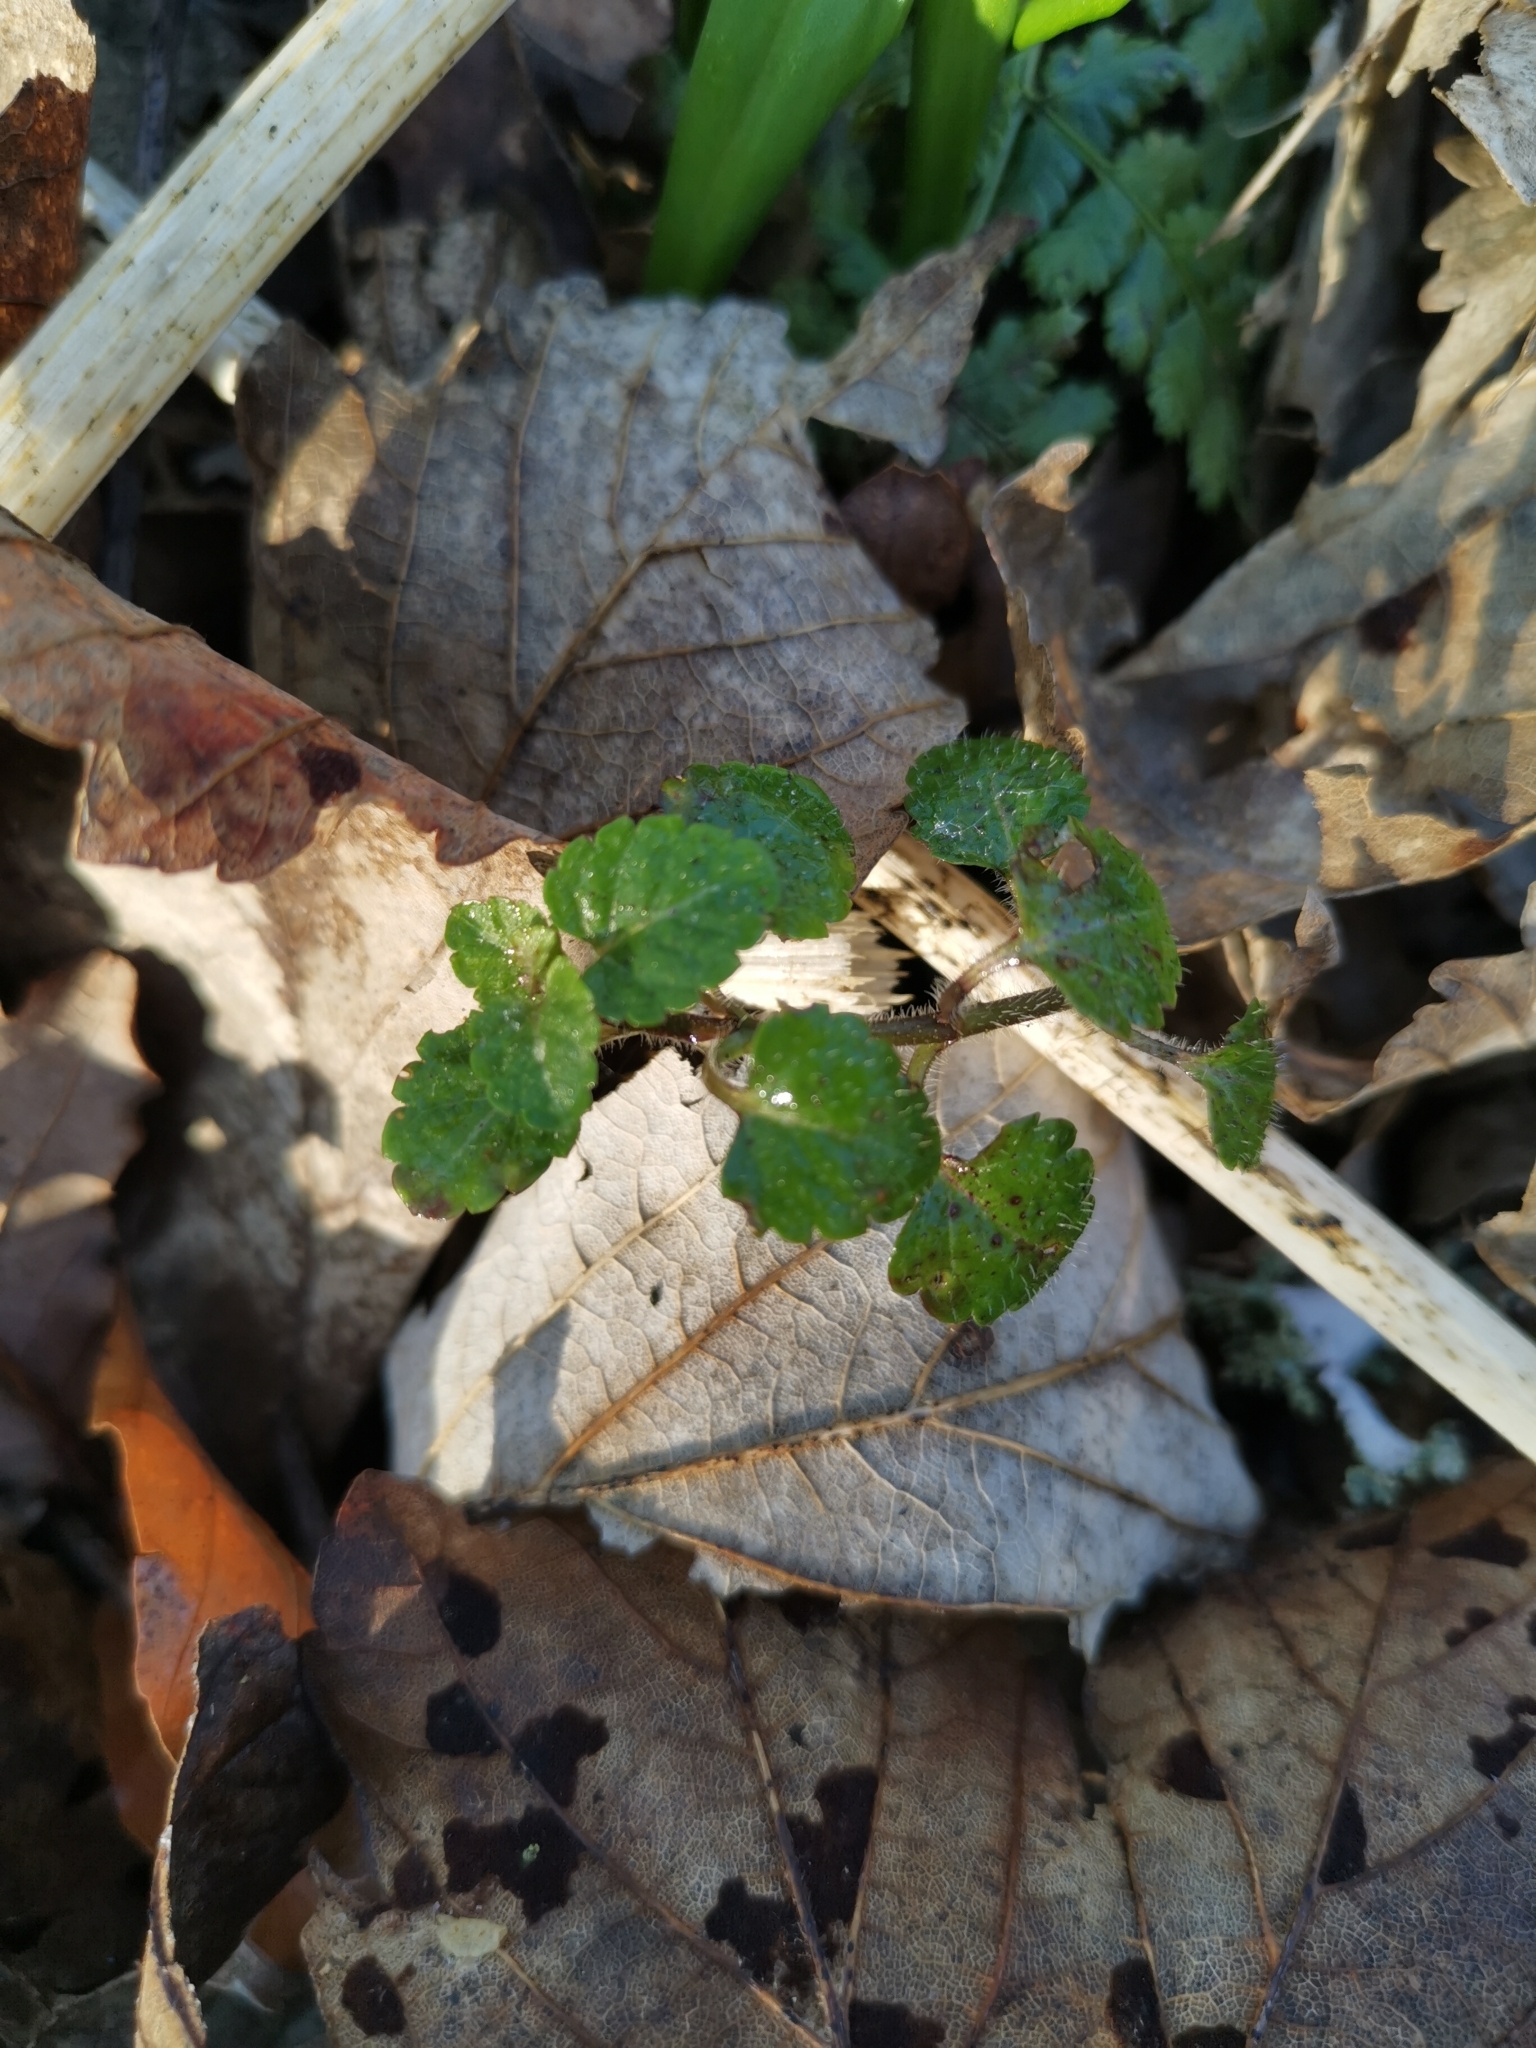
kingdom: Plantae
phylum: Tracheophyta
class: Magnoliopsida
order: Lamiales
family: Lamiaceae
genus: Glechoma
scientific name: Glechoma hederacea
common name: Ground ivy
